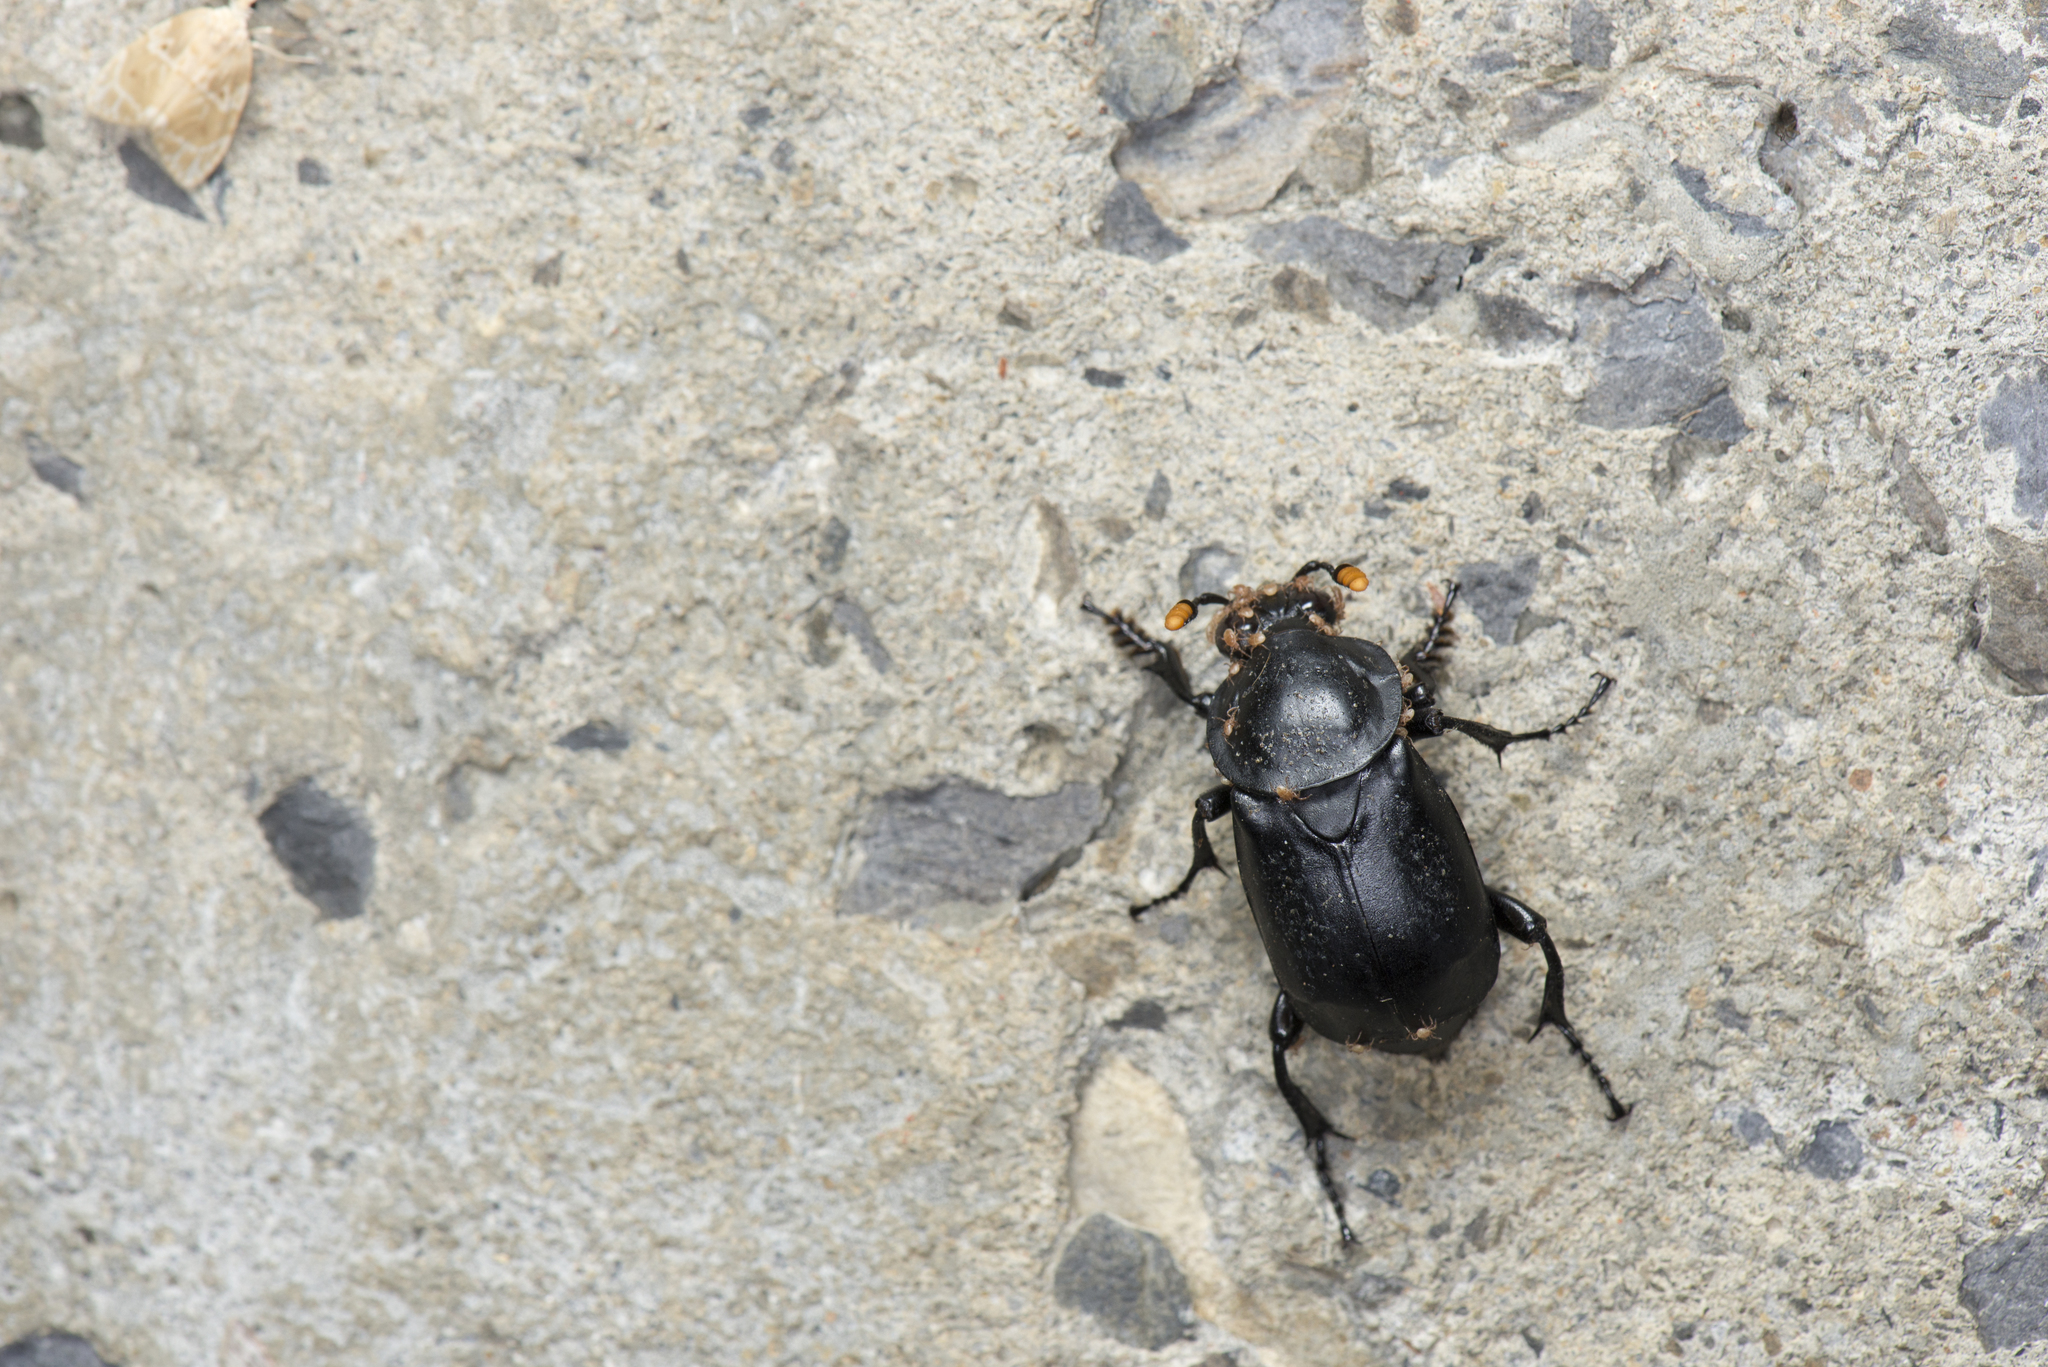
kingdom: Animalia
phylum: Arthropoda
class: Insecta
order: Coleoptera
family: Staphylinidae
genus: Nicrophorus
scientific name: Nicrophorus concolor
